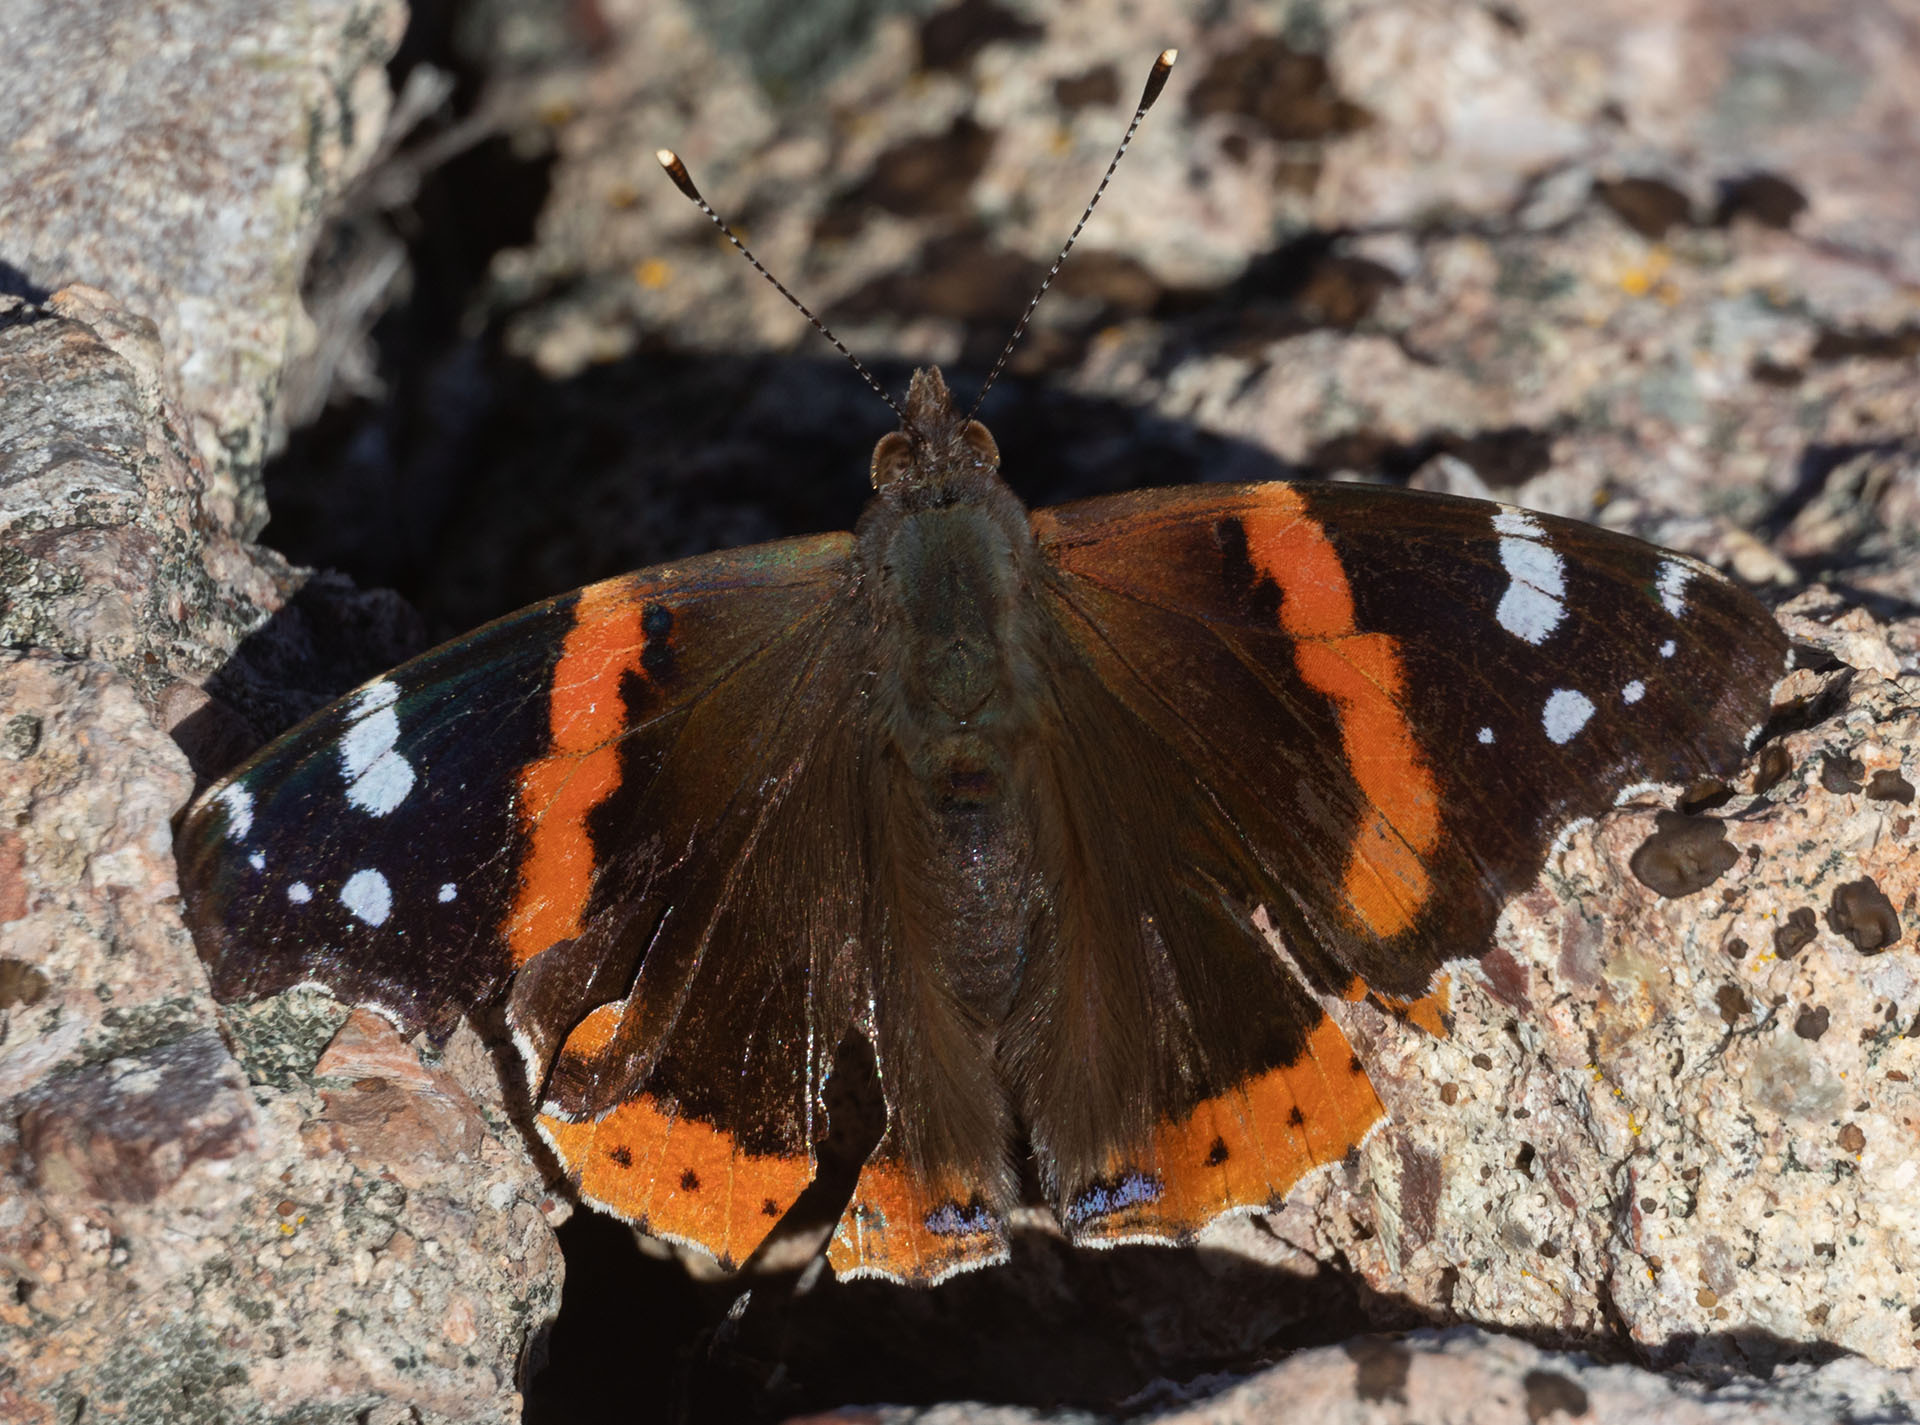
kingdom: Animalia
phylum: Arthropoda
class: Insecta
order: Lepidoptera
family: Nymphalidae
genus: Vanessa
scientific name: Vanessa atalanta
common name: Red admiral
